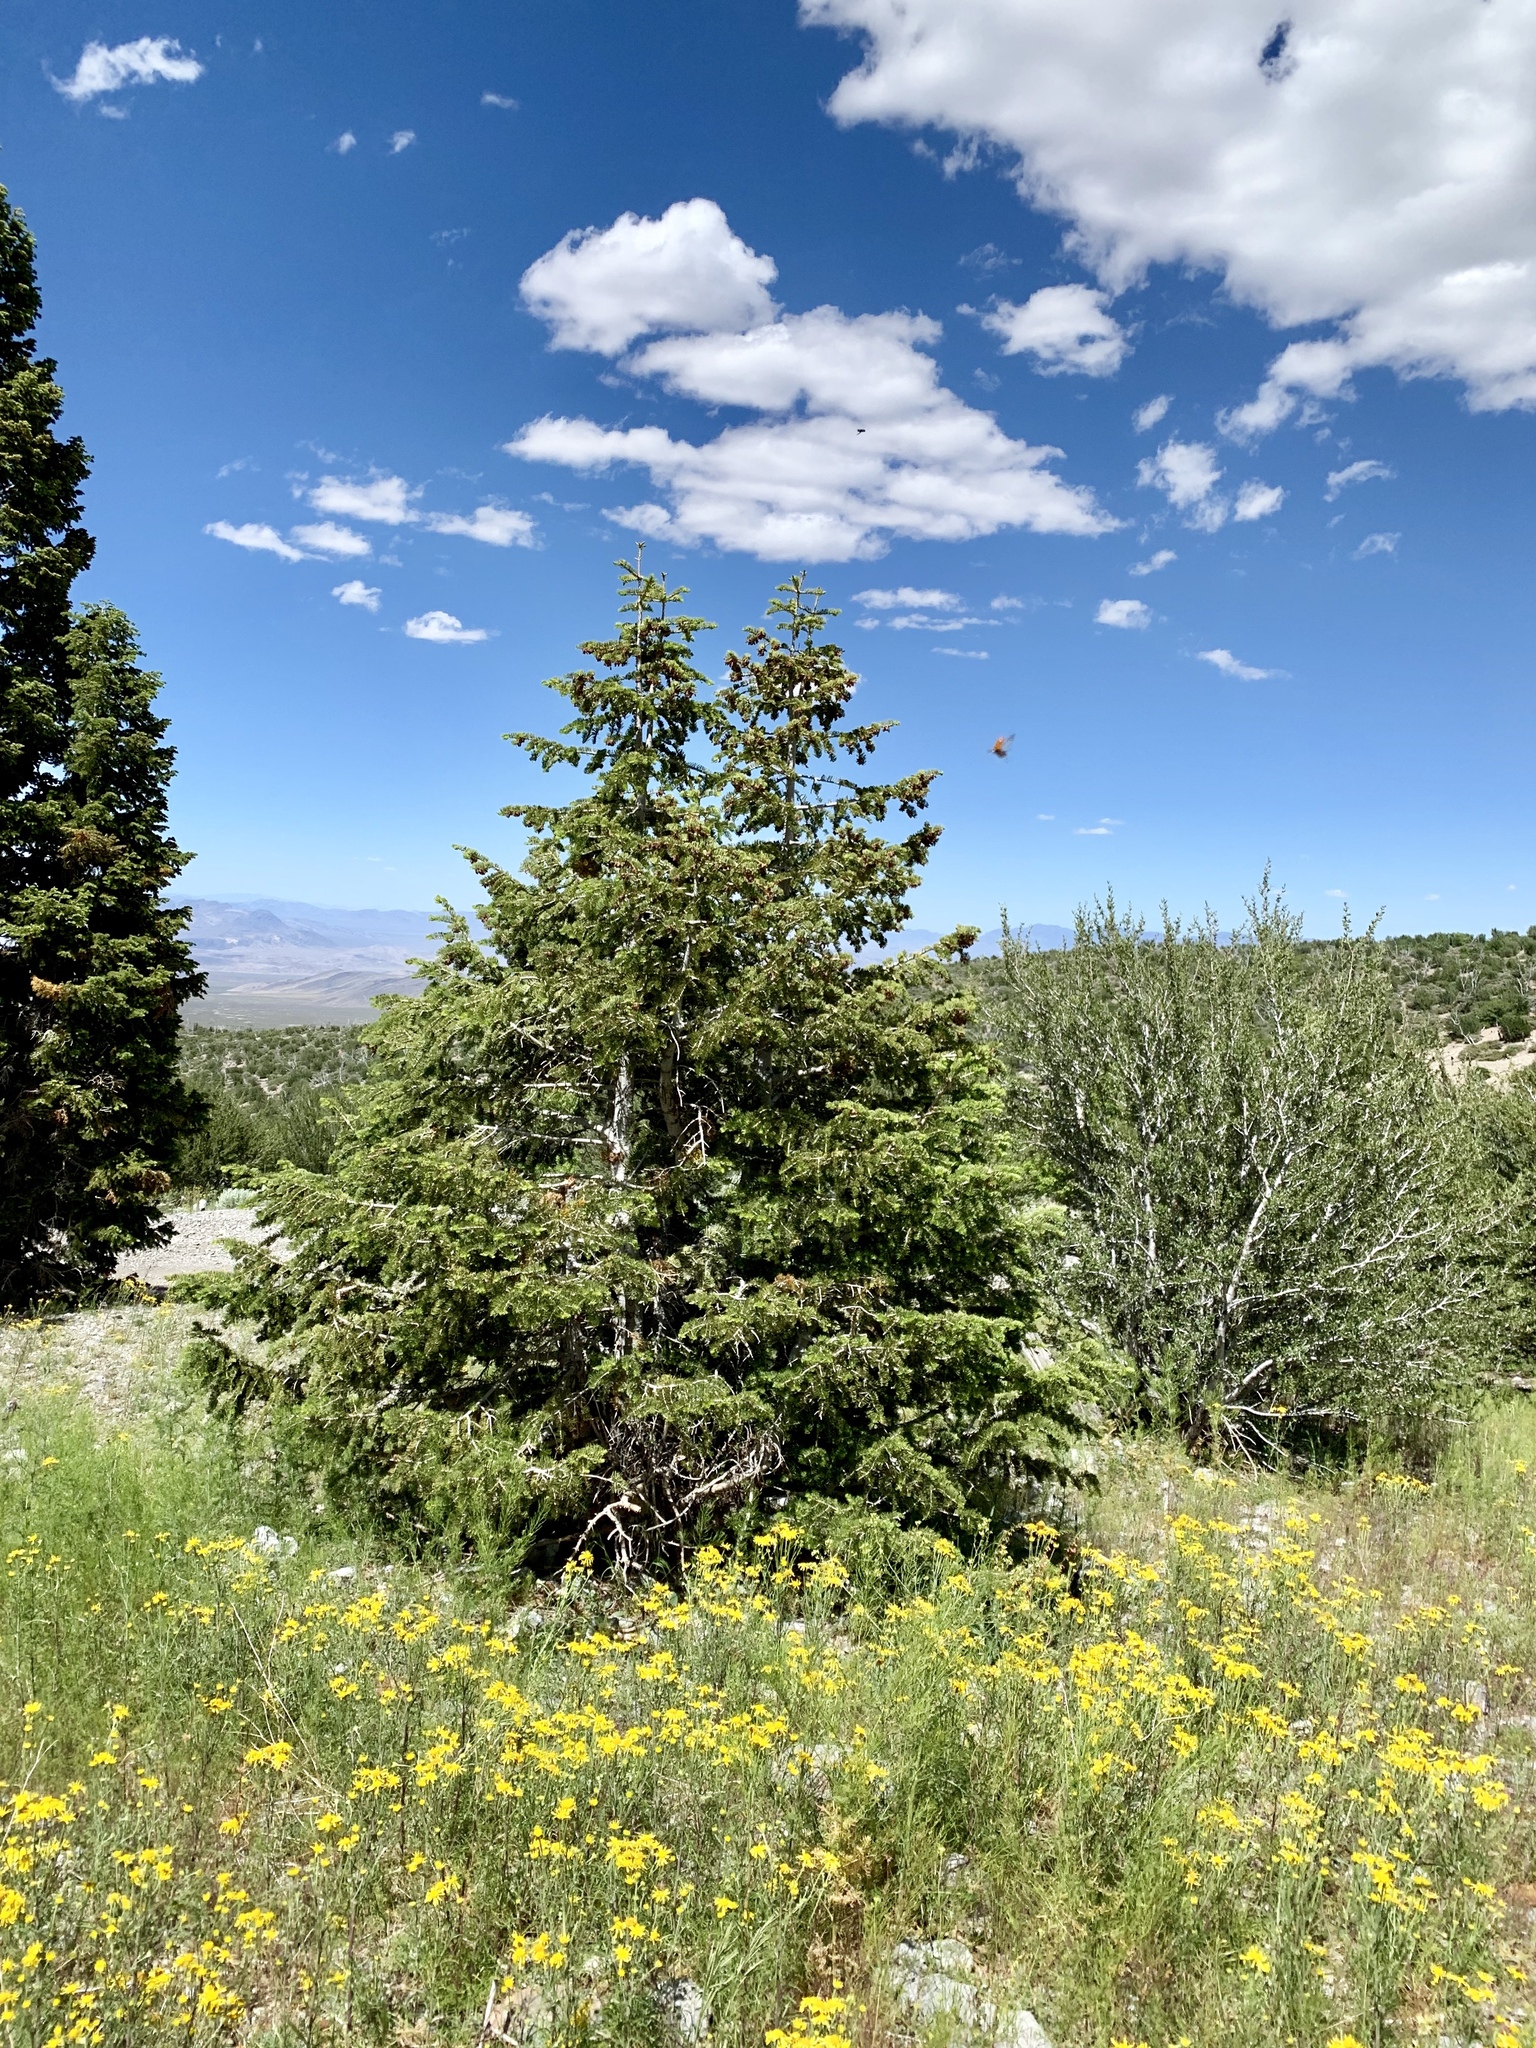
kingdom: Plantae
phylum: Tracheophyta
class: Pinopsida
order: Pinales
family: Pinaceae
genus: Abies
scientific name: Abies concolor
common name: Colorado fir
